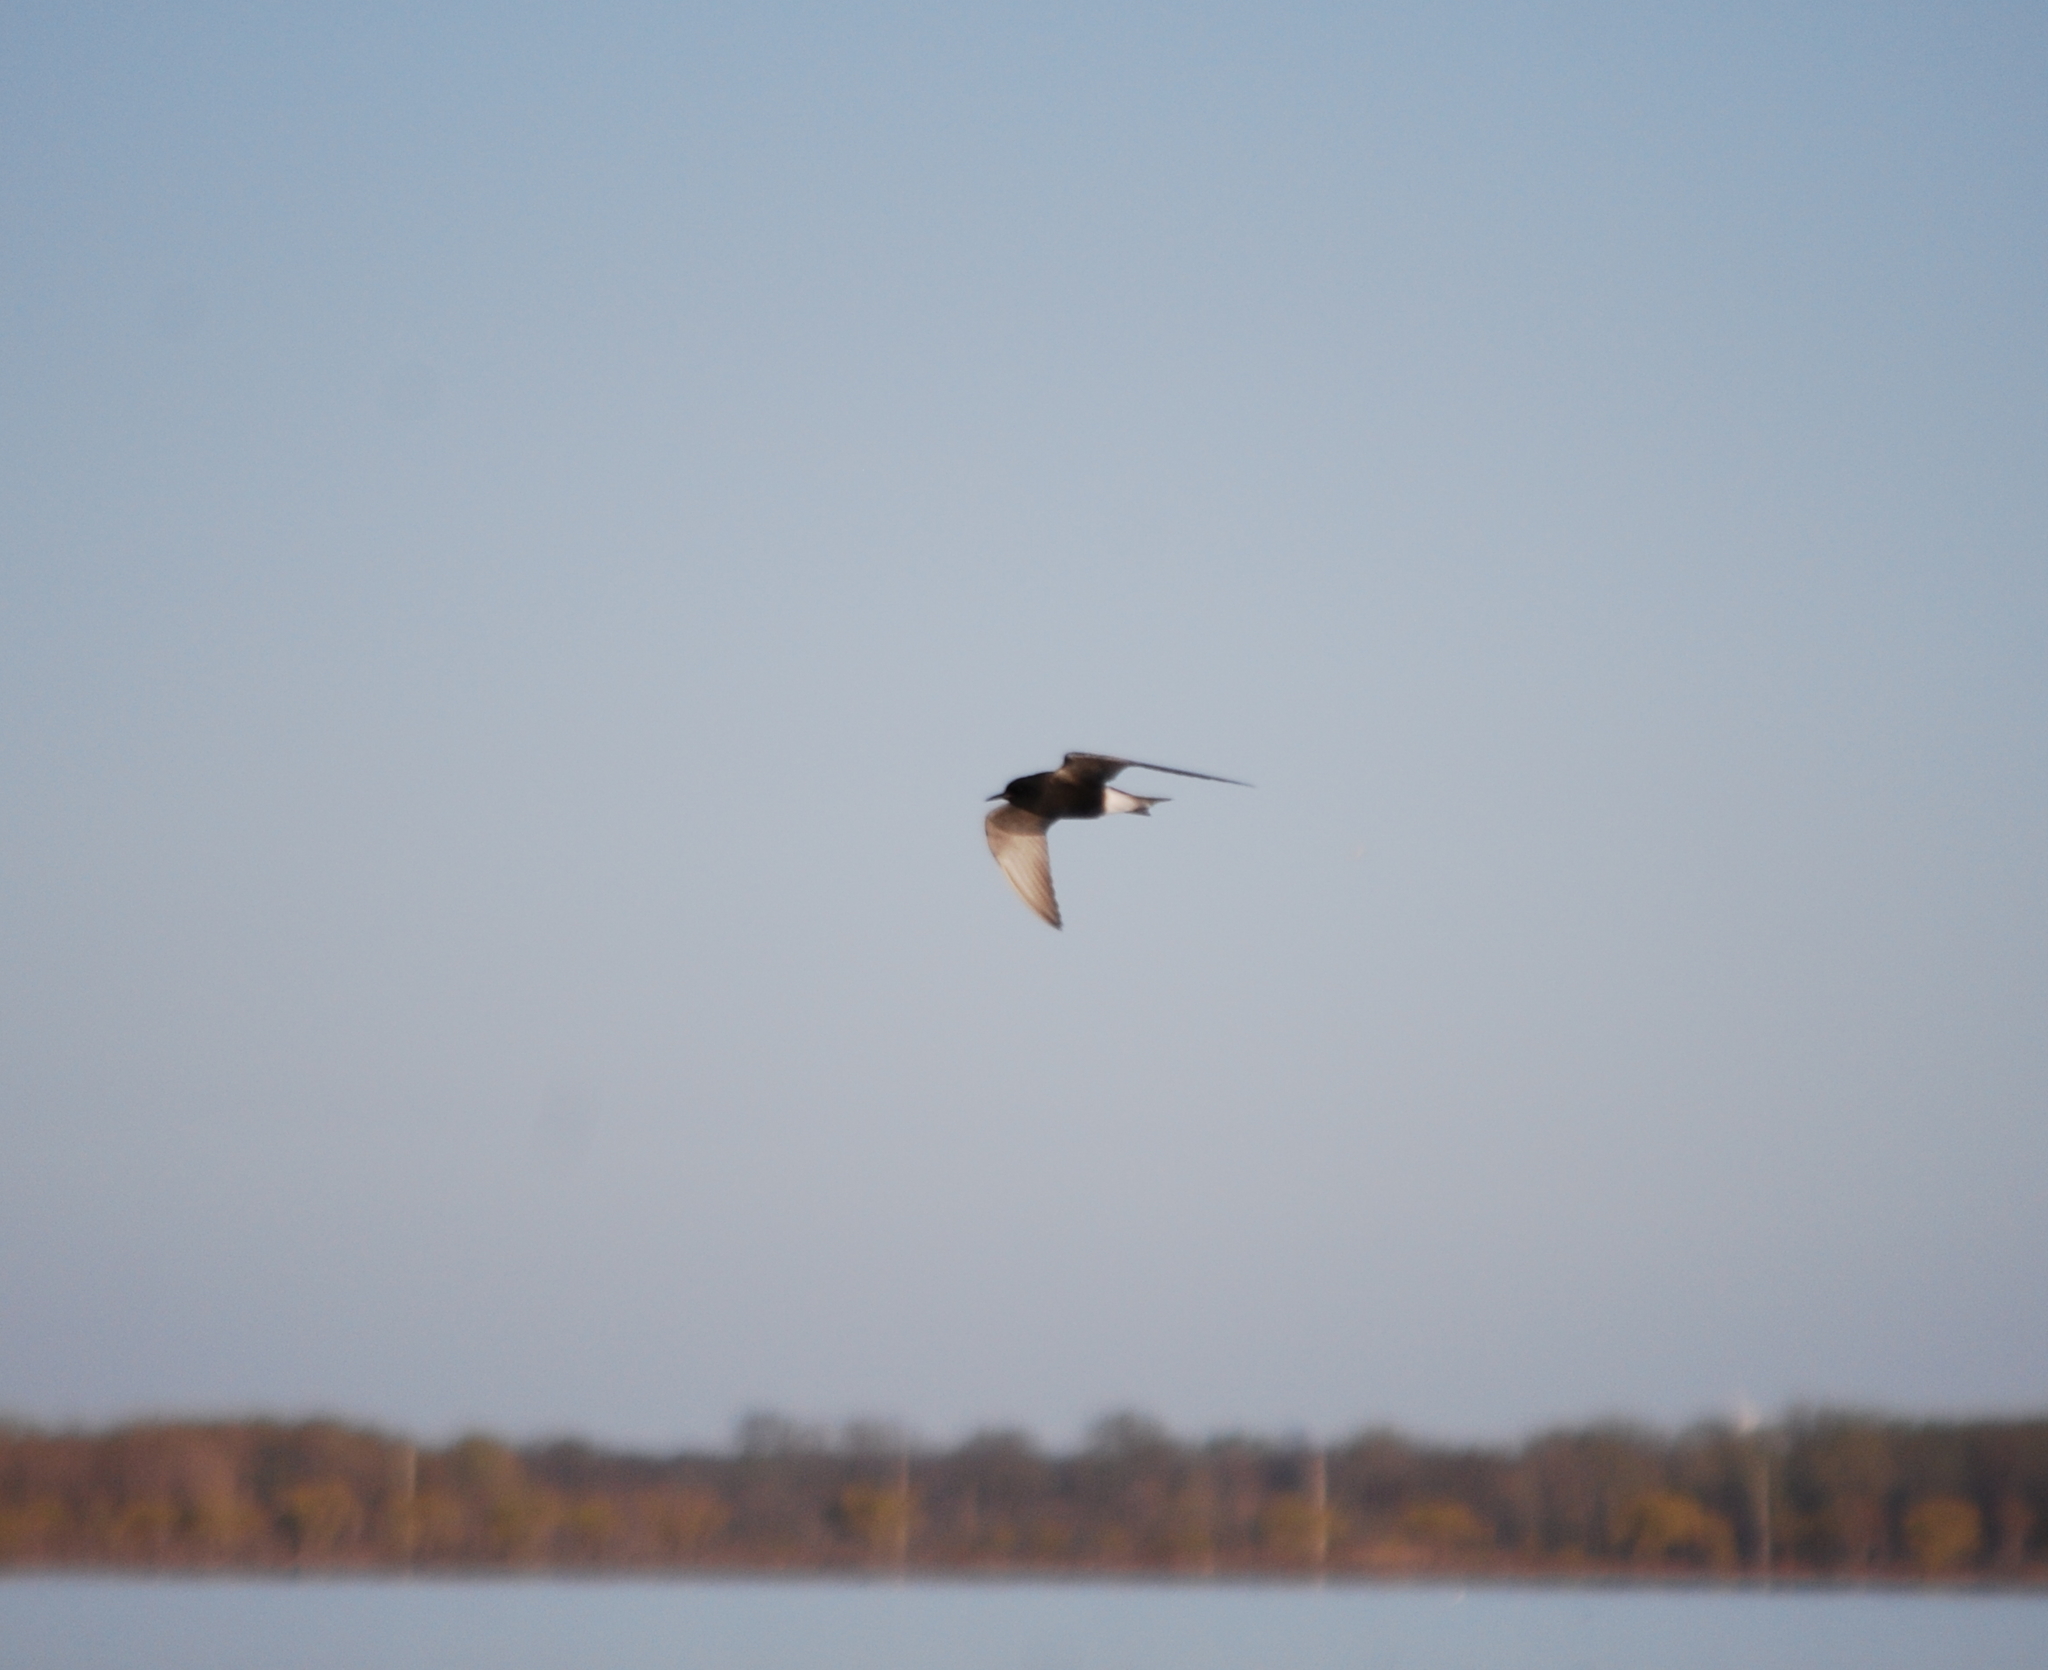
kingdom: Animalia
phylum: Chordata
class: Aves
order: Charadriiformes
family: Laridae
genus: Chlidonias
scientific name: Chlidonias niger
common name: Black tern
